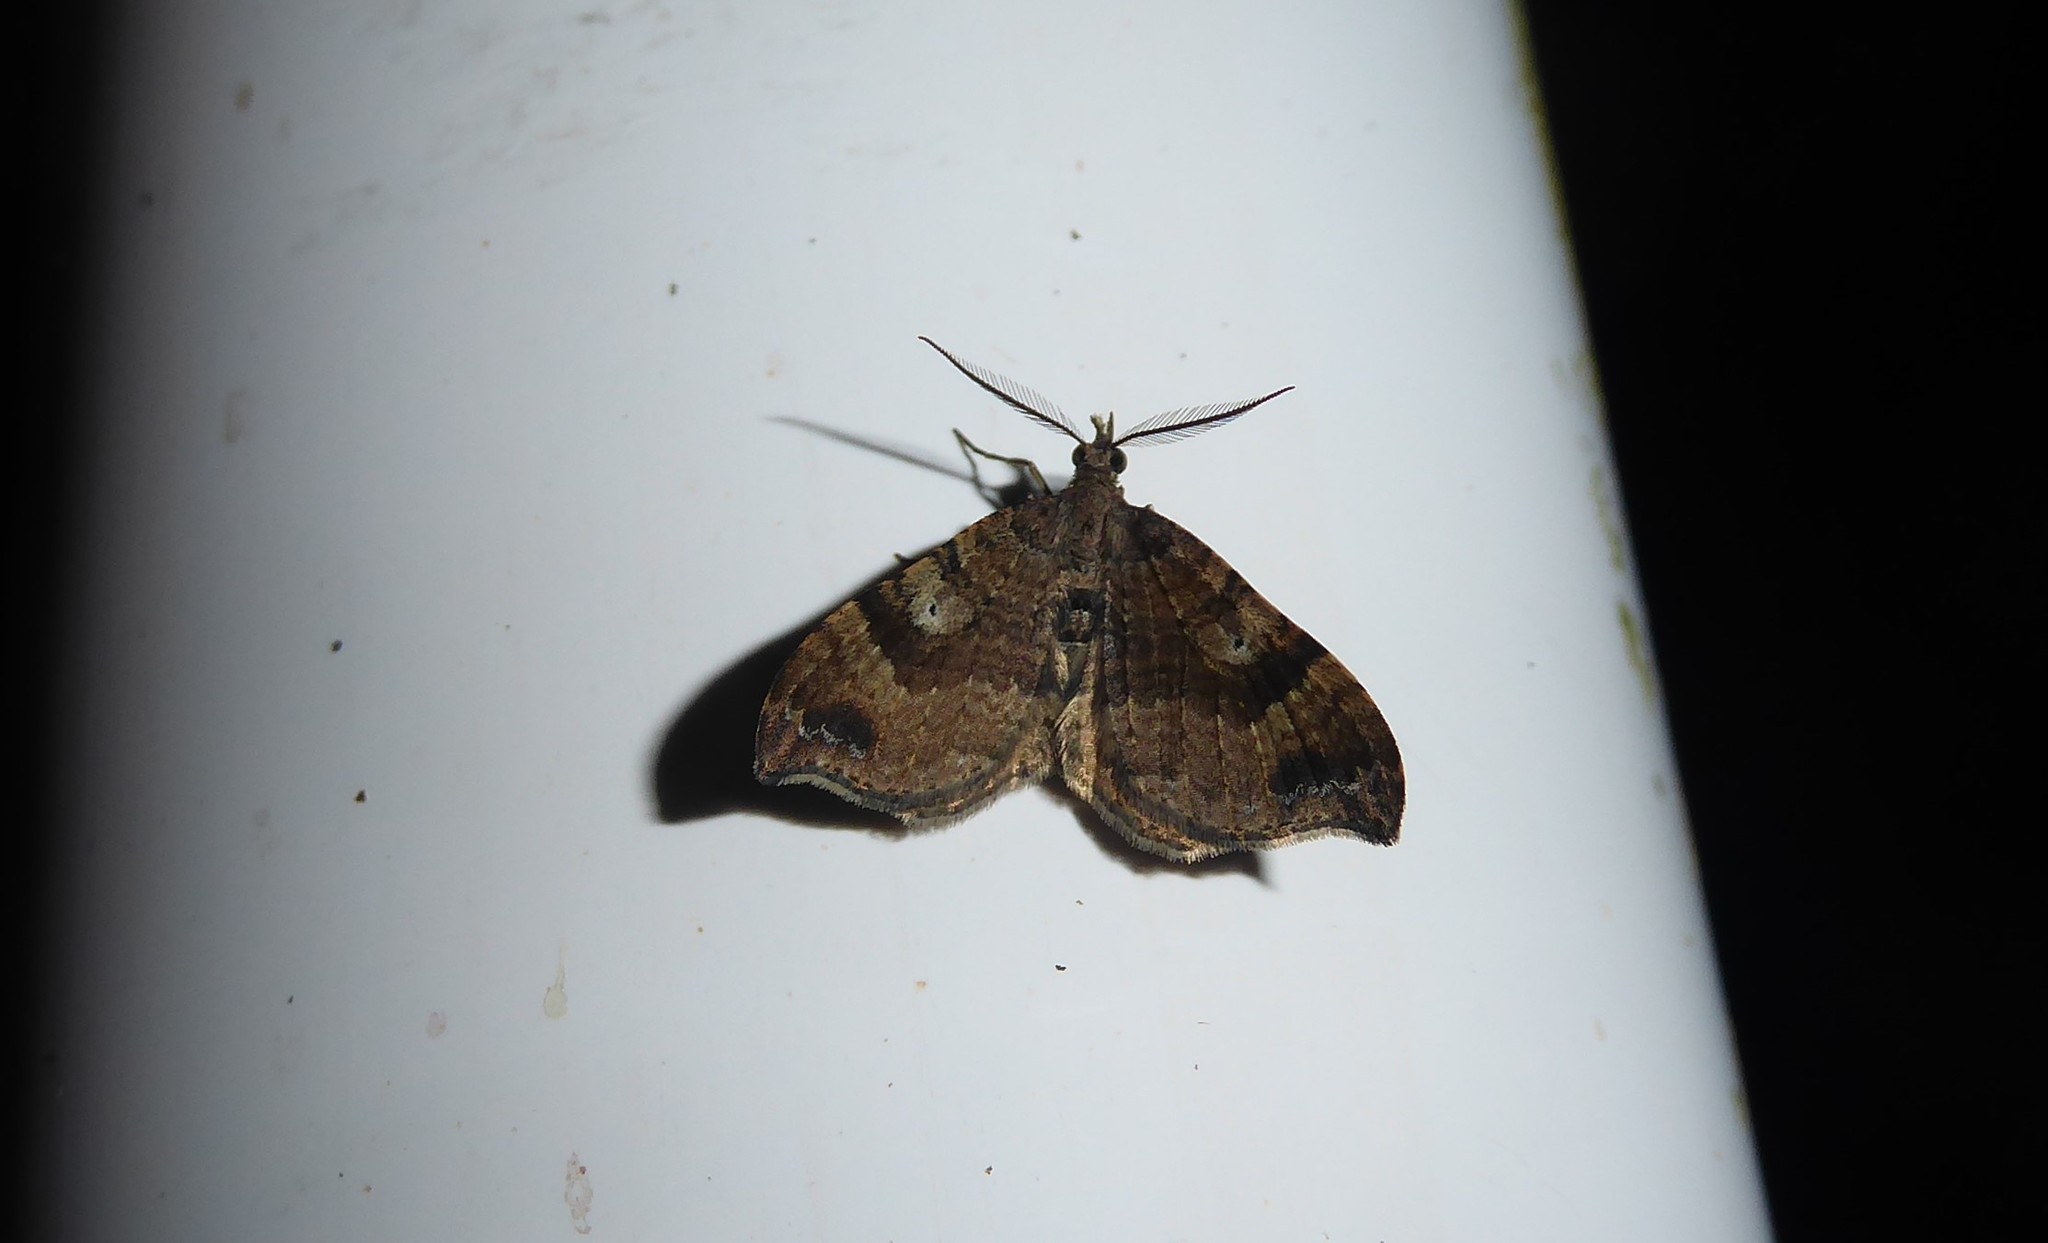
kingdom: Animalia
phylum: Arthropoda
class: Insecta
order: Lepidoptera
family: Geometridae
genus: Homodotis
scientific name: Homodotis megaspilata
